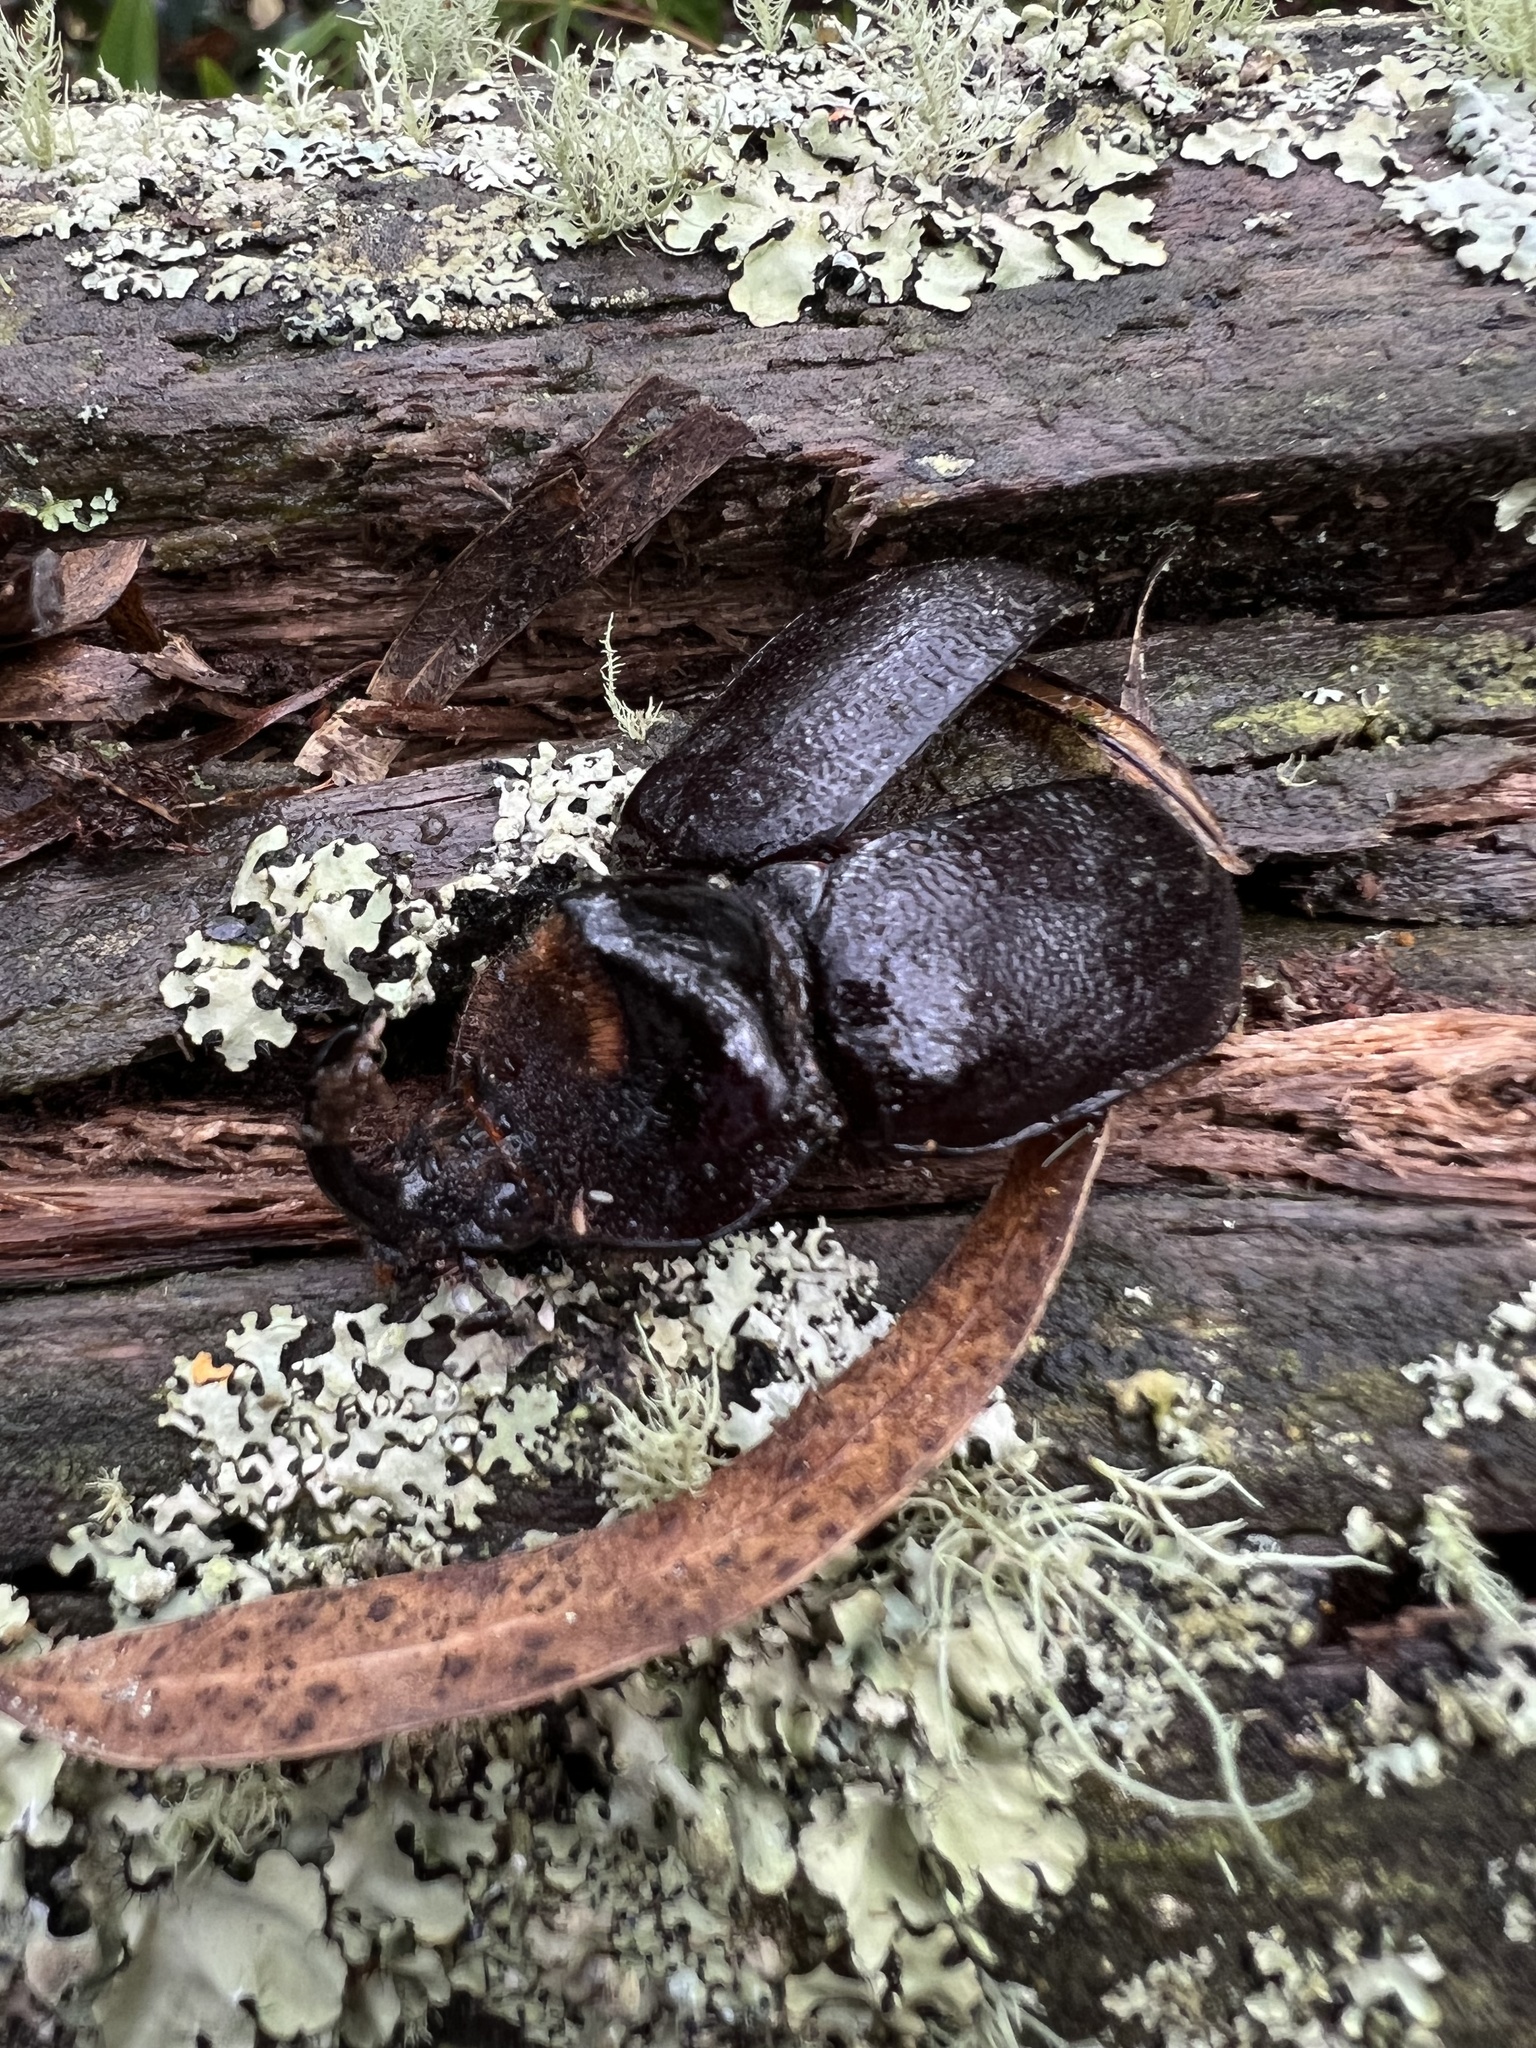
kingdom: Animalia
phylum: Arthropoda
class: Insecta
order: Coleoptera
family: Scarabaeidae
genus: Heterogomphus
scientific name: Heterogomphus schoenherri
